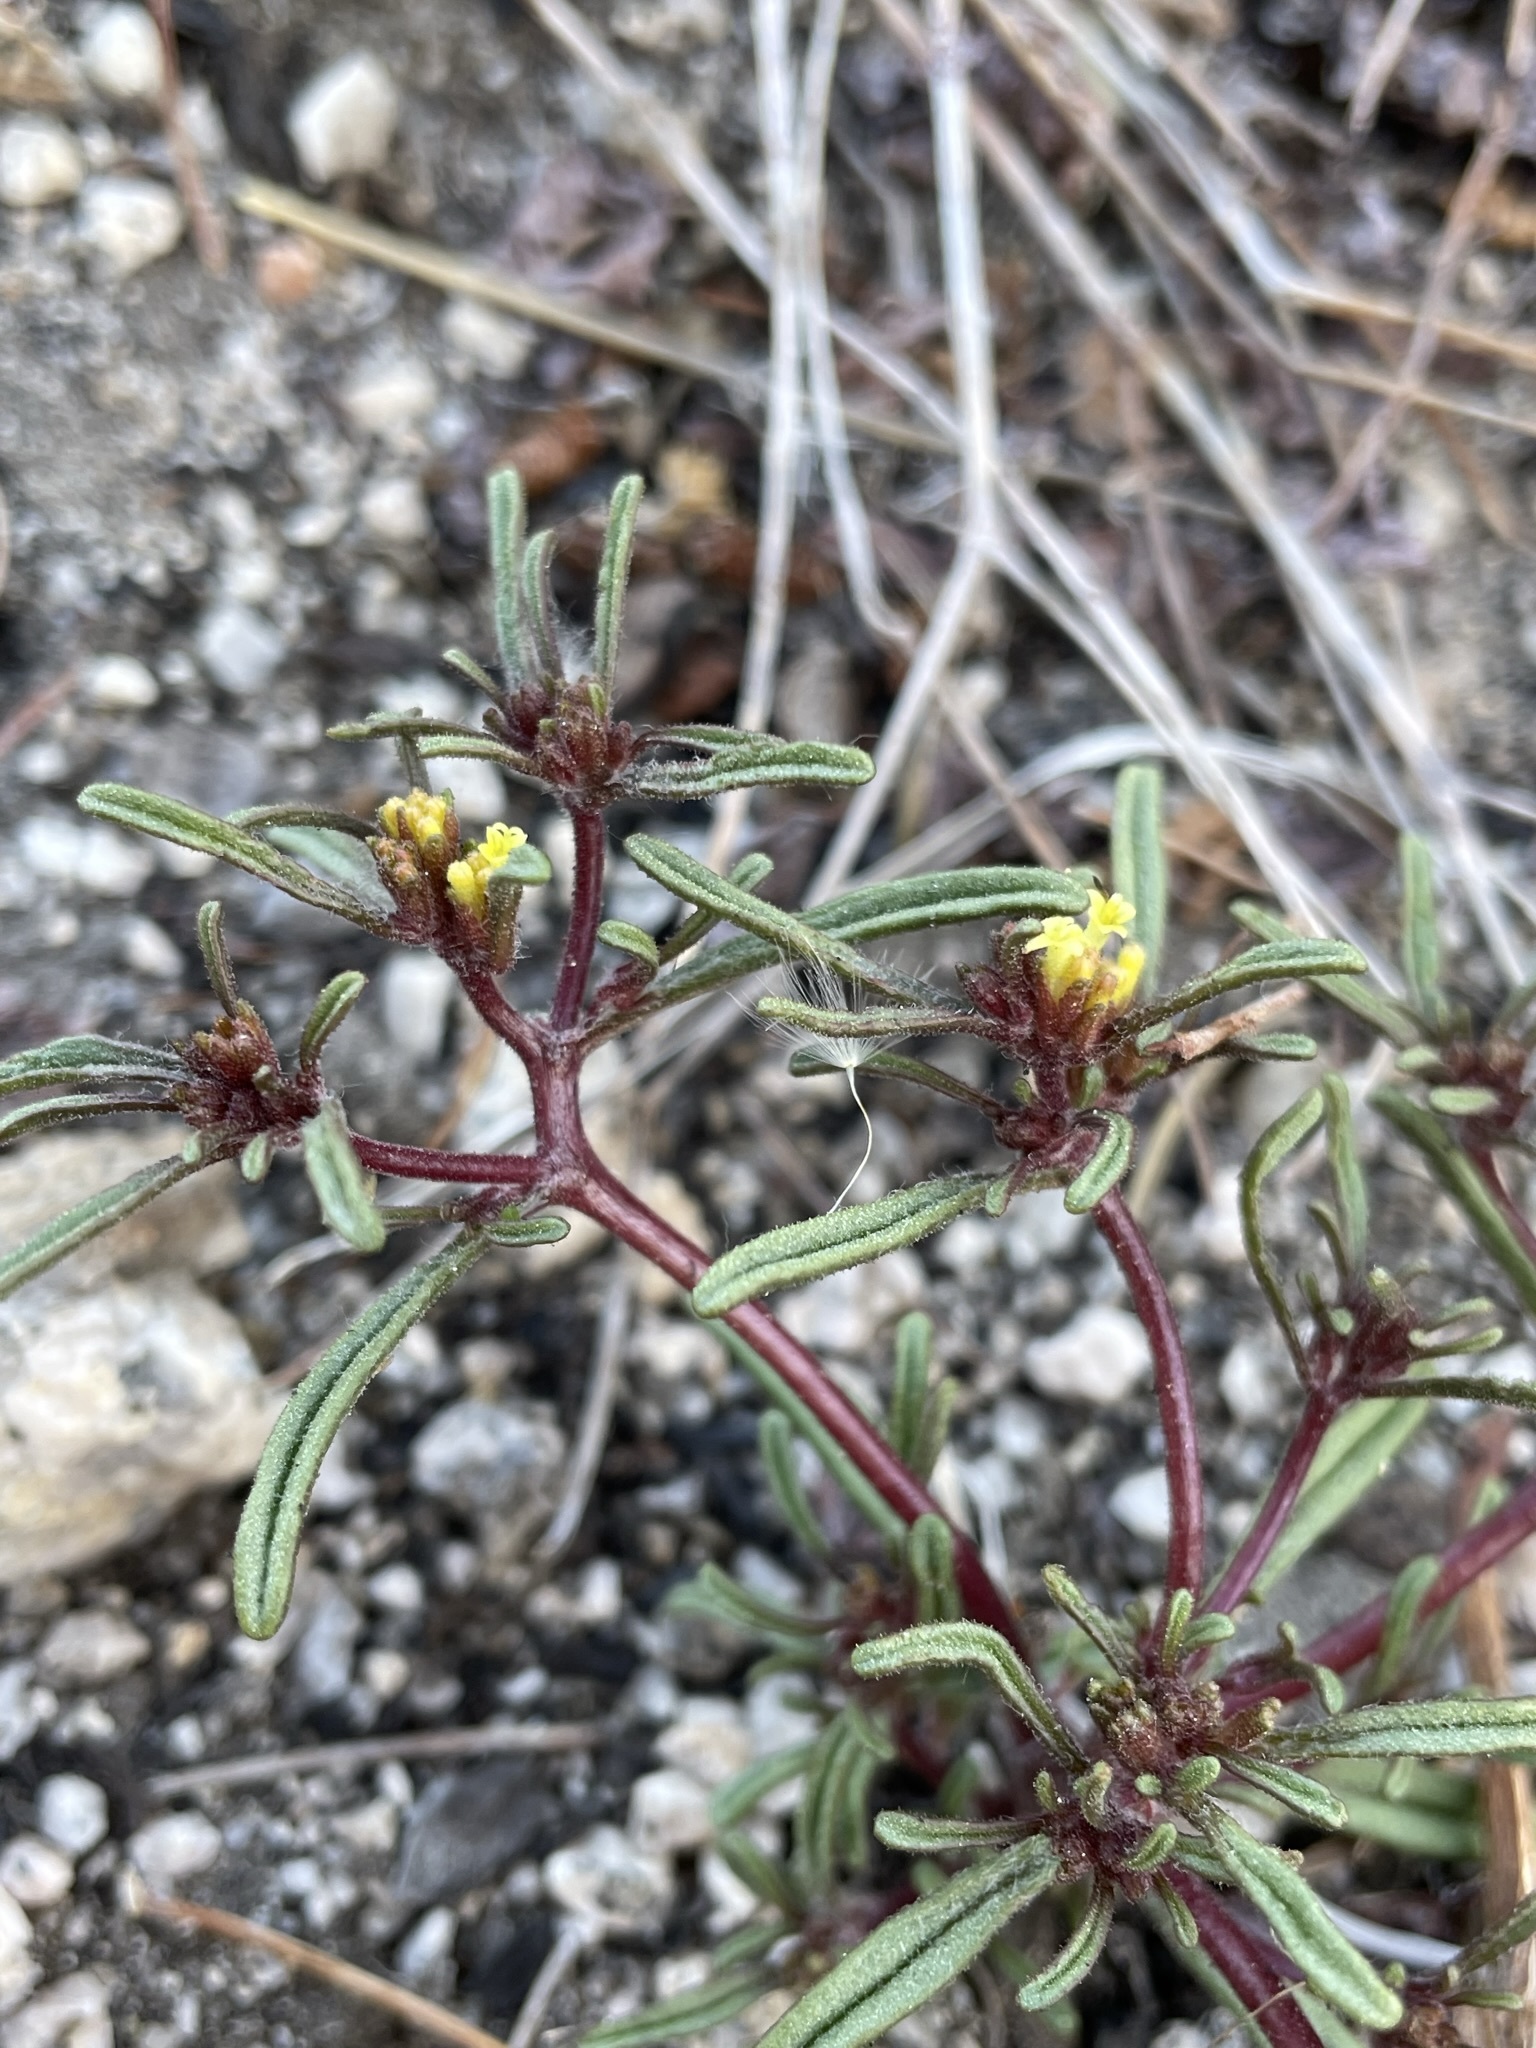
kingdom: Plantae
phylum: Tracheophyta
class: Magnoliopsida
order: Asterales
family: Asteraceae
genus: Orochaenactis
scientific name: Orochaenactis thysanocarpha
